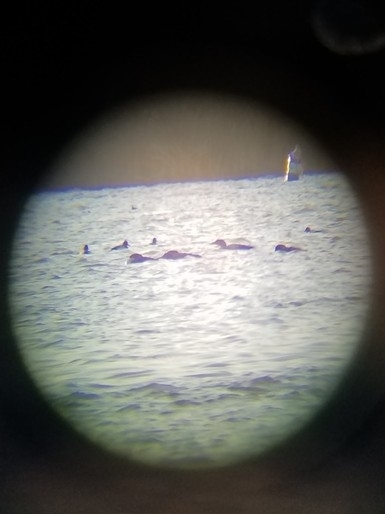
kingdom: Animalia
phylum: Chordata
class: Aves
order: Gaviiformes
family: Gaviidae
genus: Gavia
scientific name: Gavia immer
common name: Common loon
